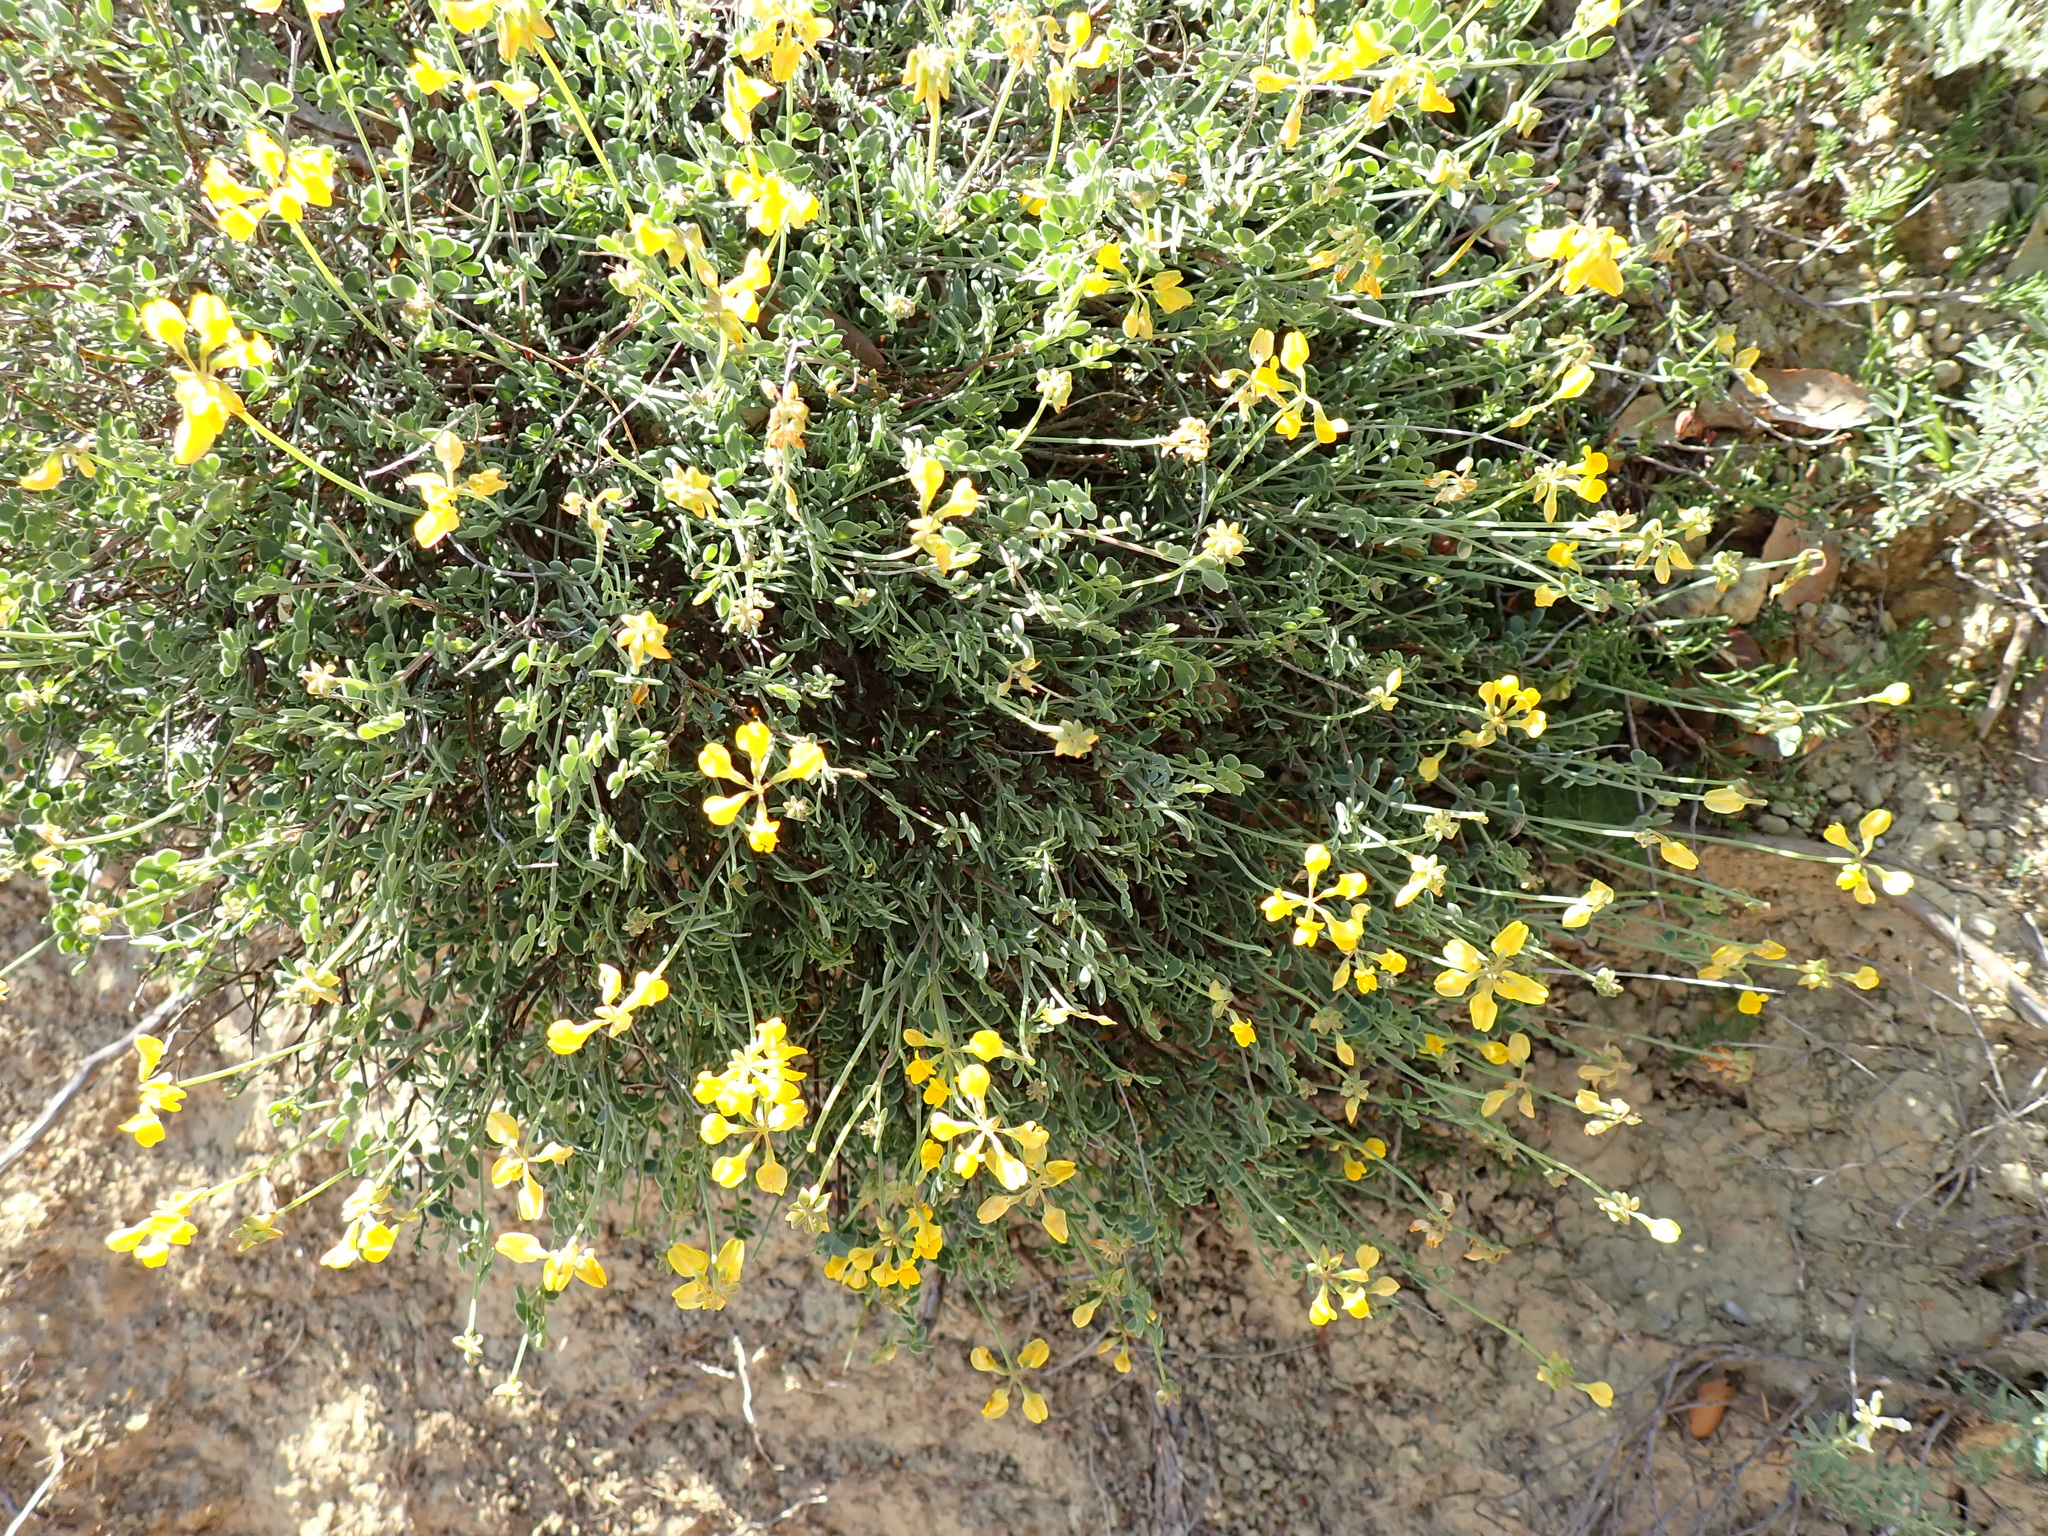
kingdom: Plantae
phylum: Tracheophyta
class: Magnoliopsida
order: Fabales
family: Fabaceae
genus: Coronilla
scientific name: Coronilla minima
